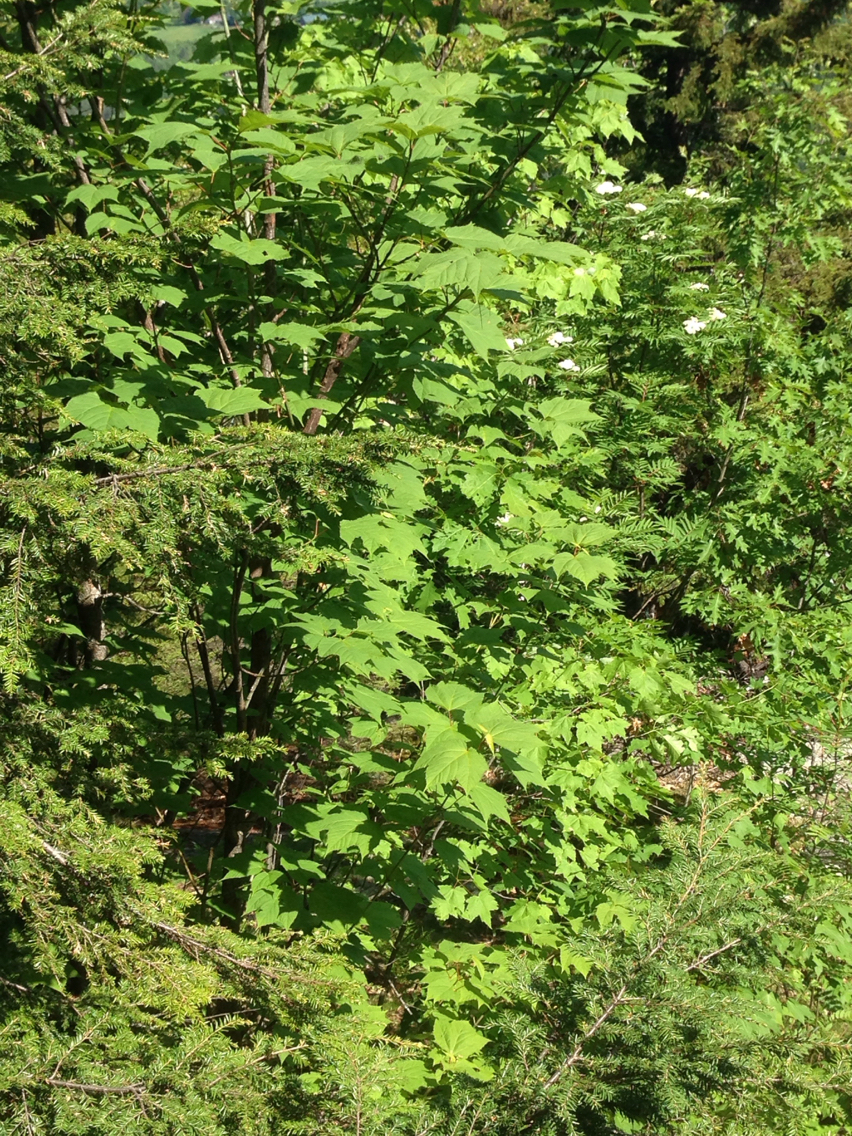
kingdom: Plantae
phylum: Tracheophyta
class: Magnoliopsida
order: Sapindales
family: Sapindaceae
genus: Acer
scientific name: Acer pensylvanicum
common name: Moosewood
